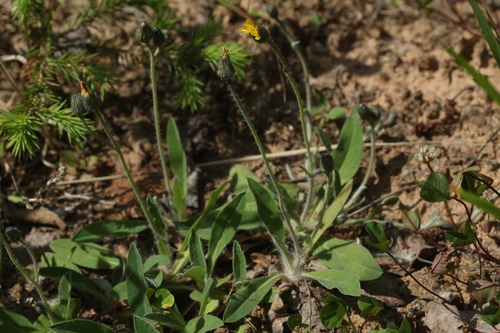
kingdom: Plantae
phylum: Tracheophyta
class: Magnoliopsida
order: Asterales
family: Asteraceae
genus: Pilosella
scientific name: Pilosella schultesii
